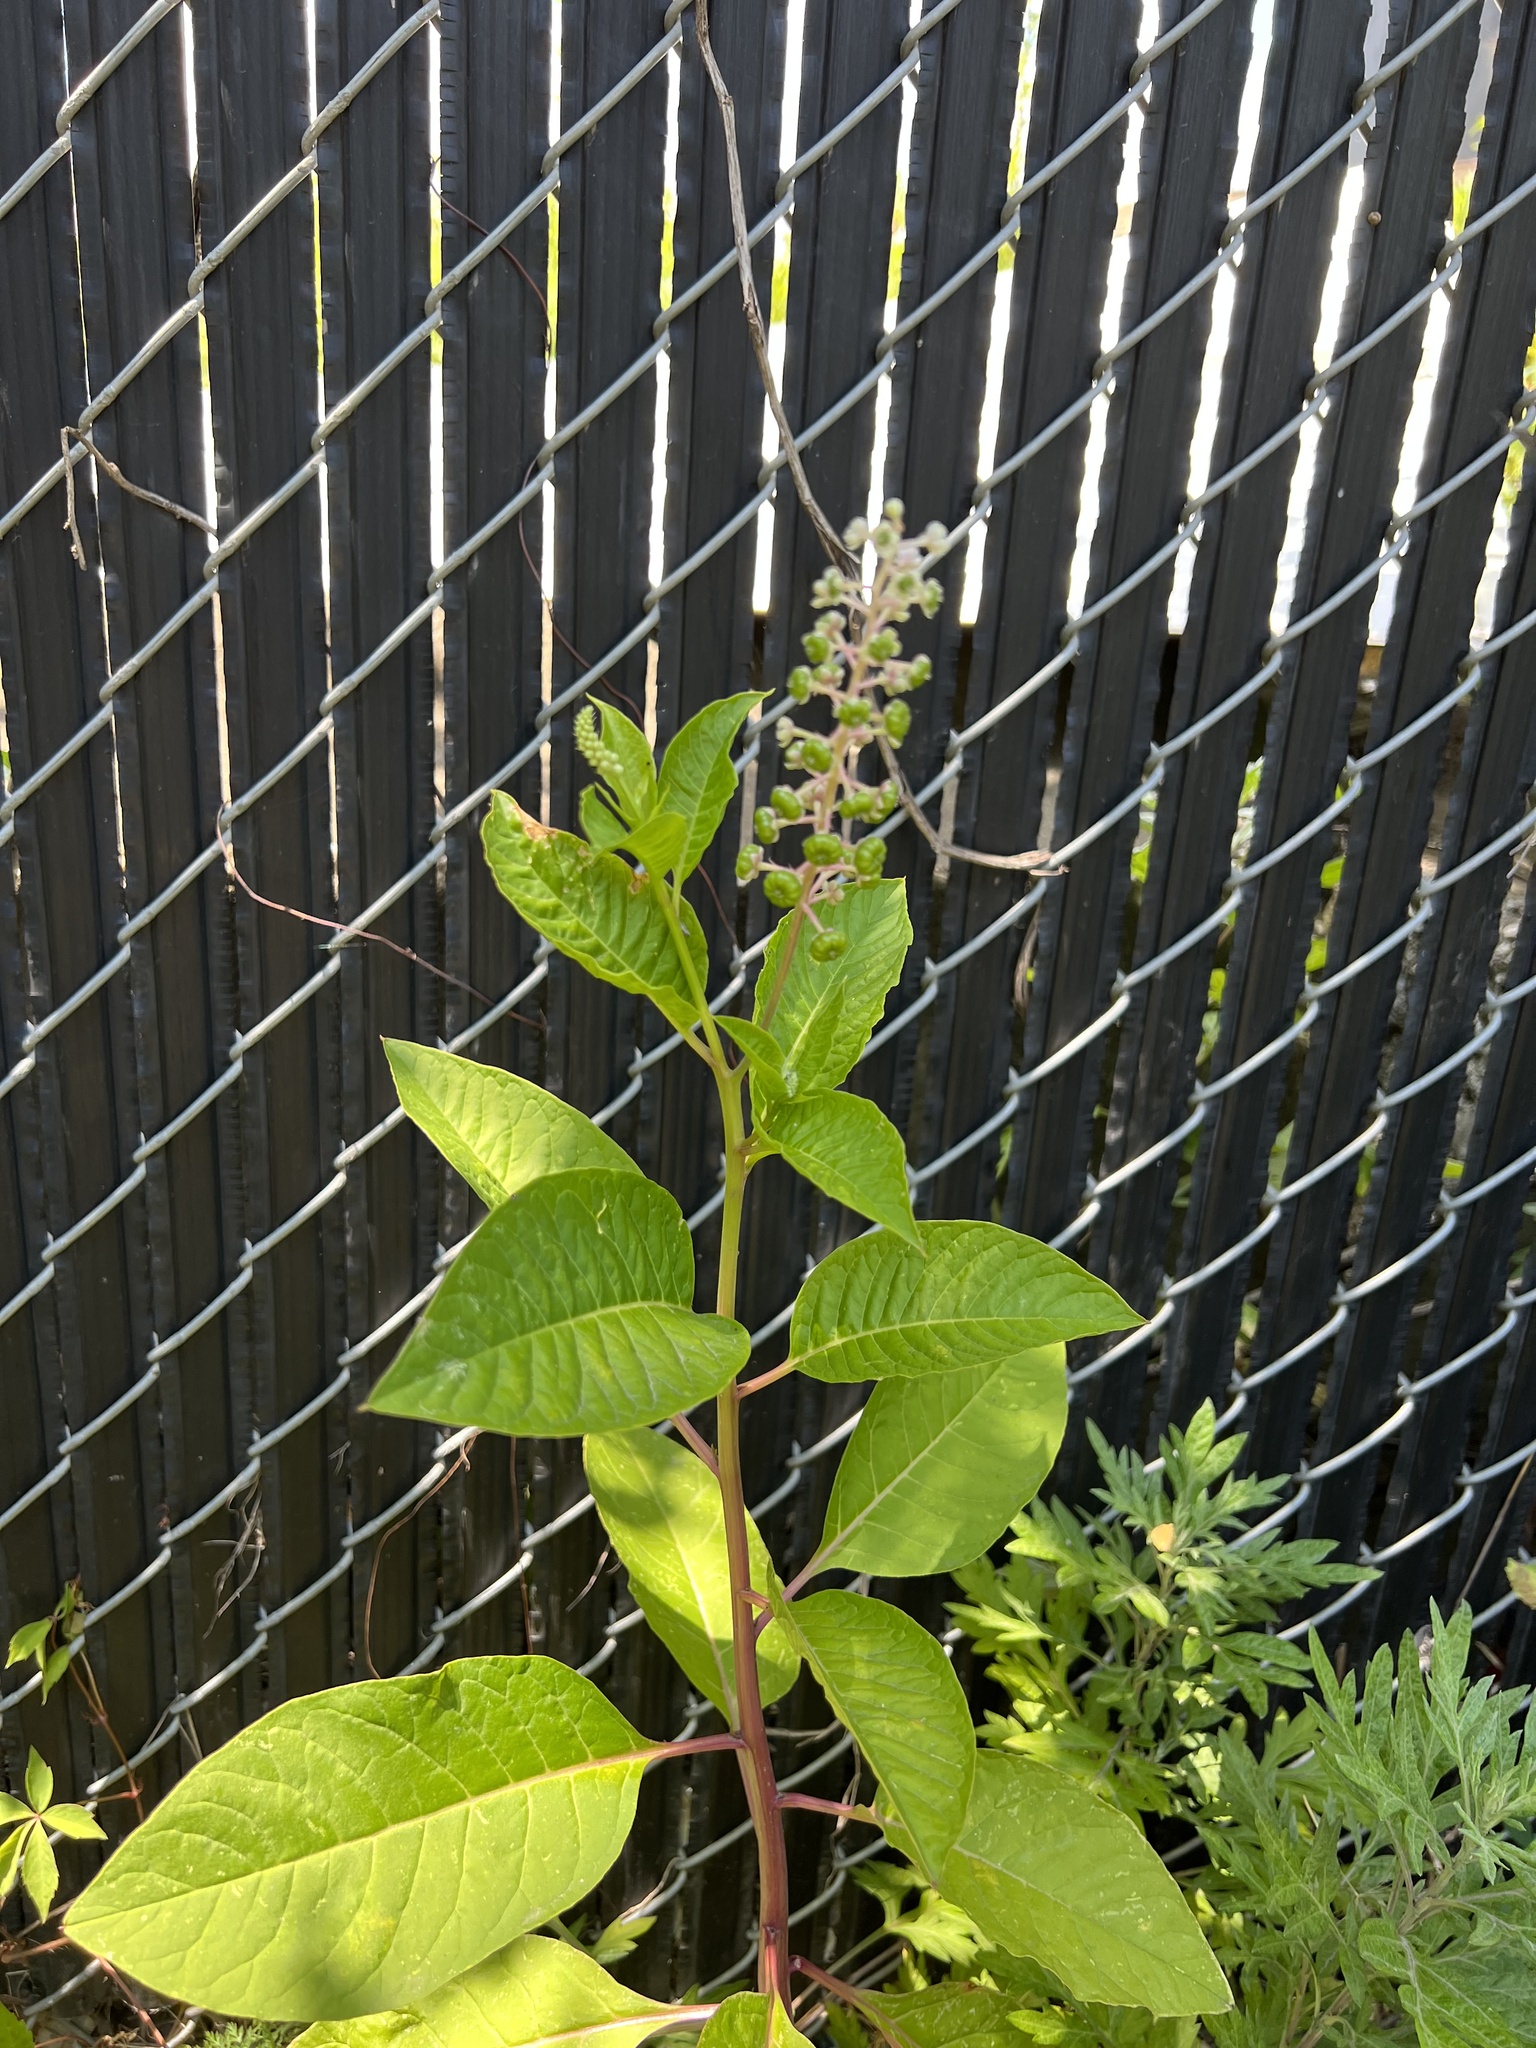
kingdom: Plantae
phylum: Tracheophyta
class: Magnoliopsida
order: Caryophyllales
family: Phytolaccaceae
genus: Phytolacca
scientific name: Phytolacca americana
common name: American pokeweed
